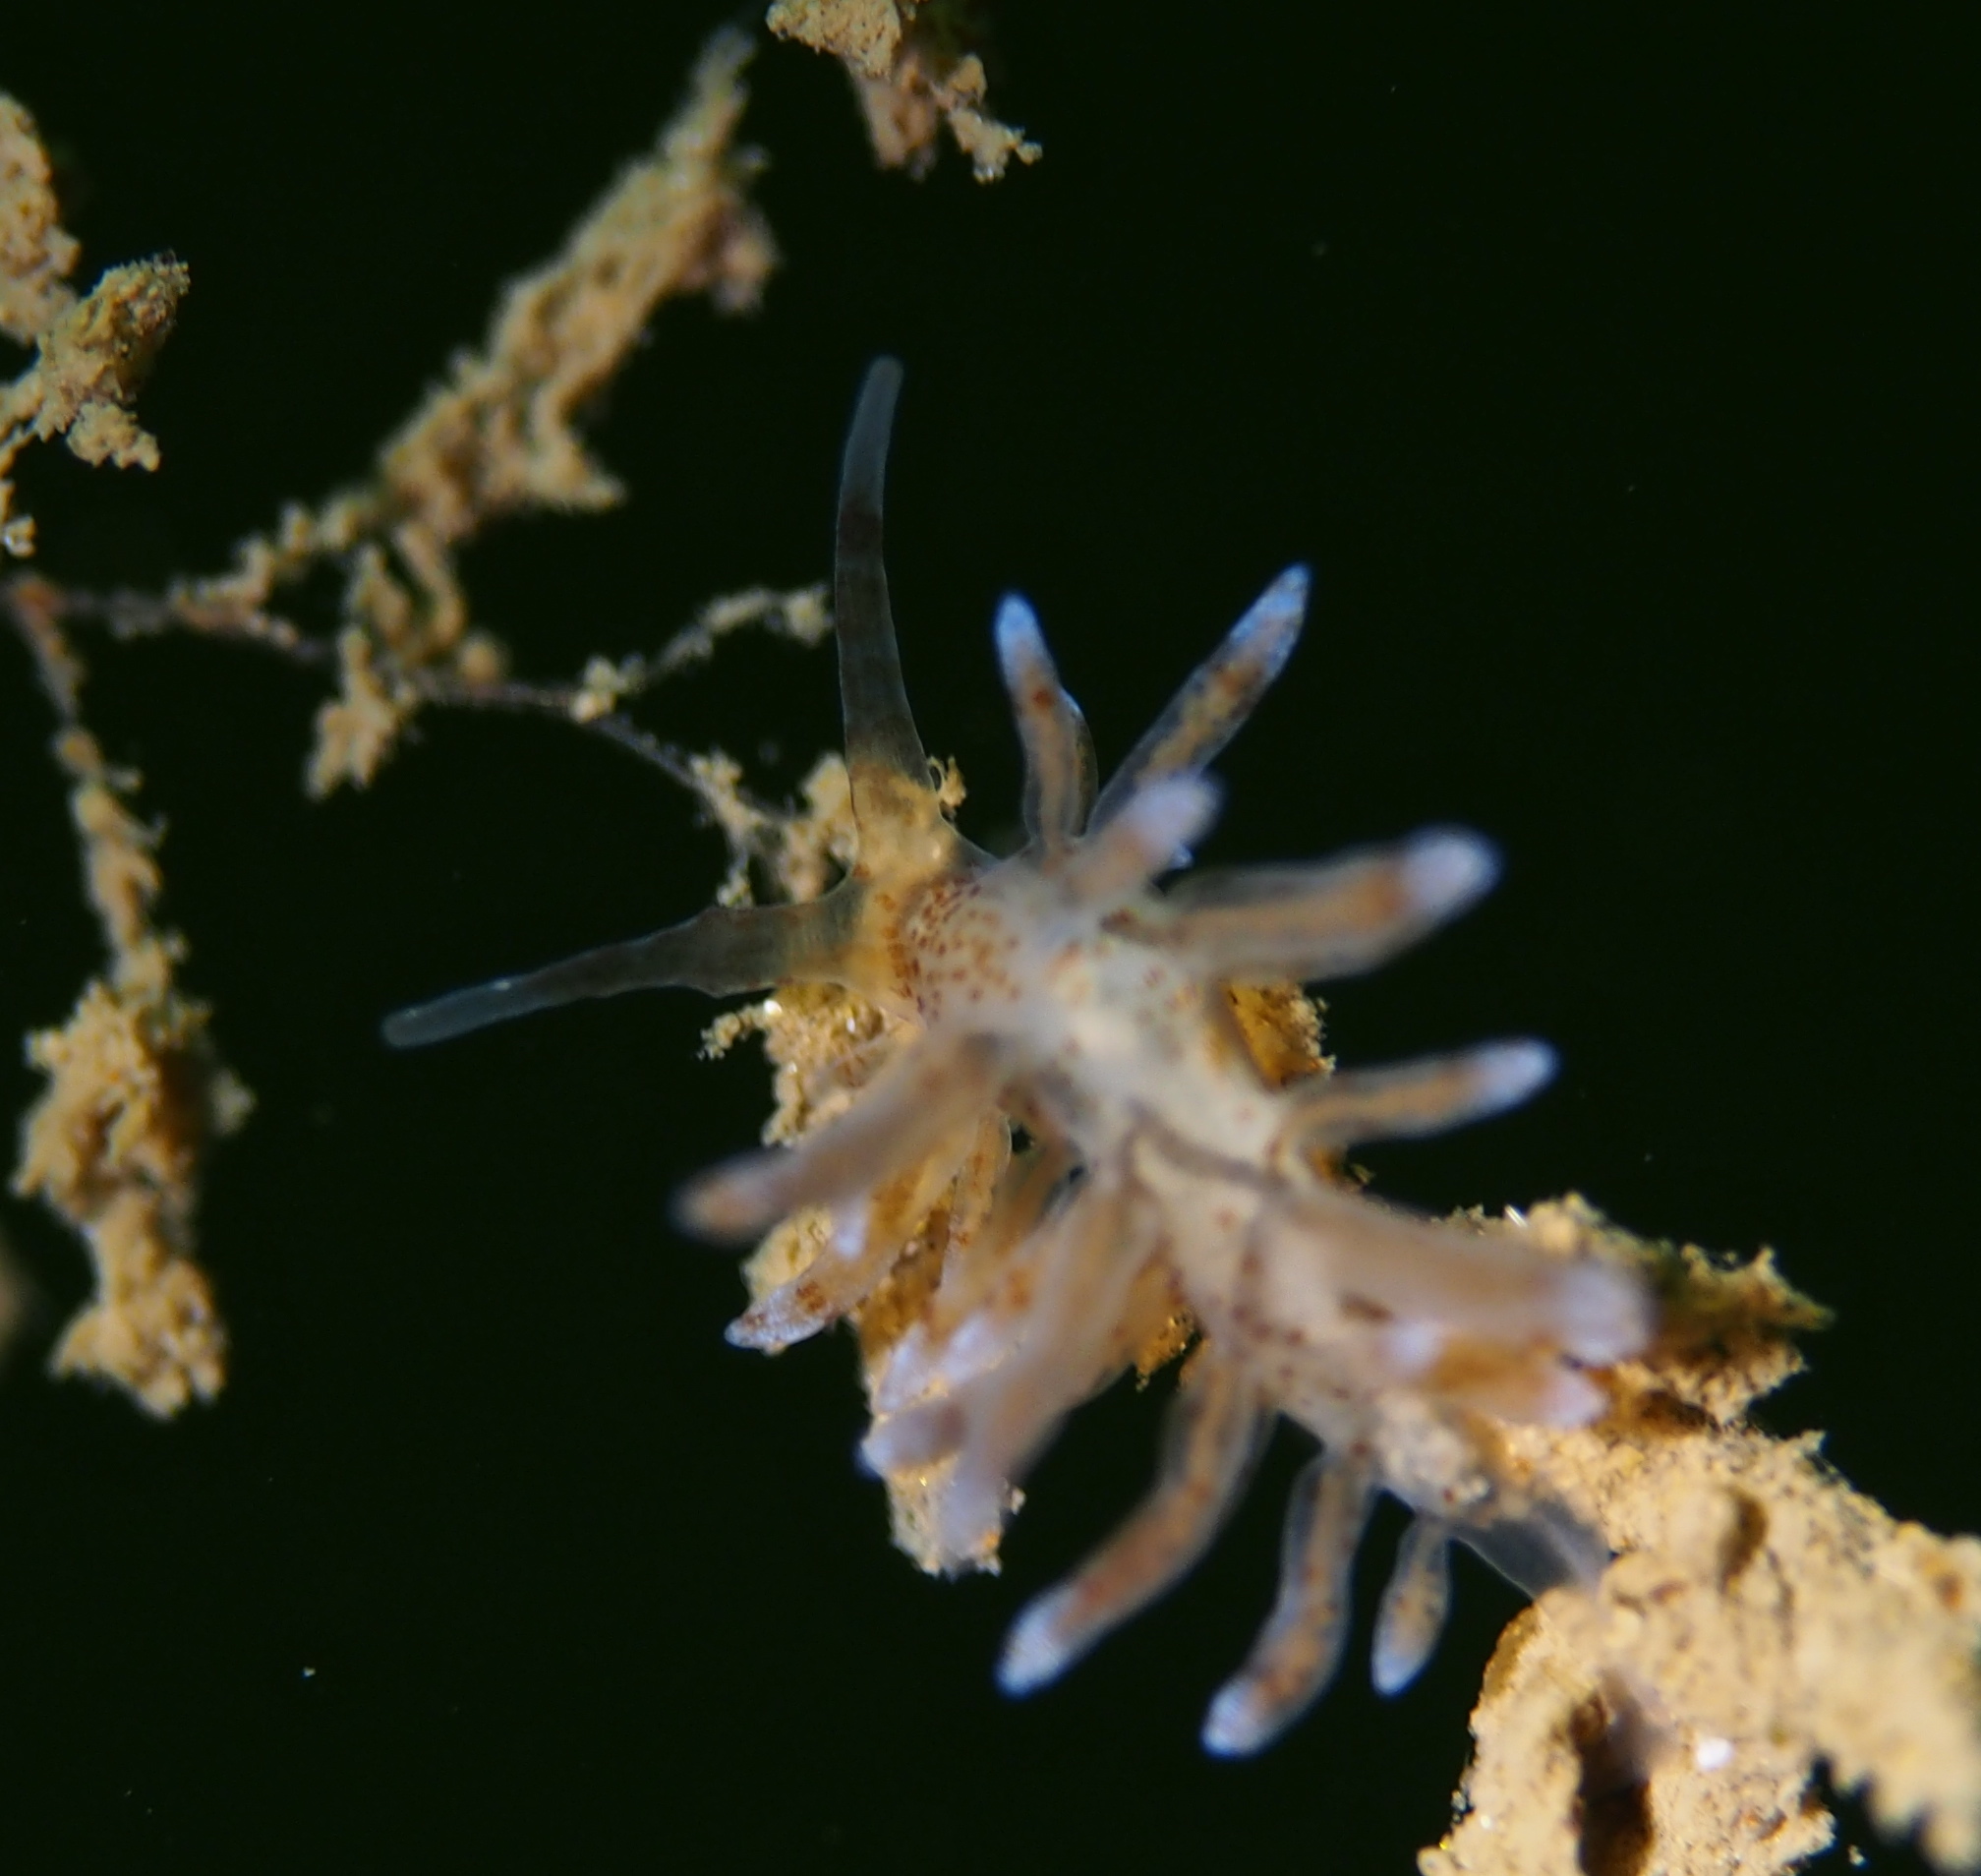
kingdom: Animalia
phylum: Mollusca
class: Gastropoda
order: Nudibranchia
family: Eubranchidae
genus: Eubranchus
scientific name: Eubranchus rupium
